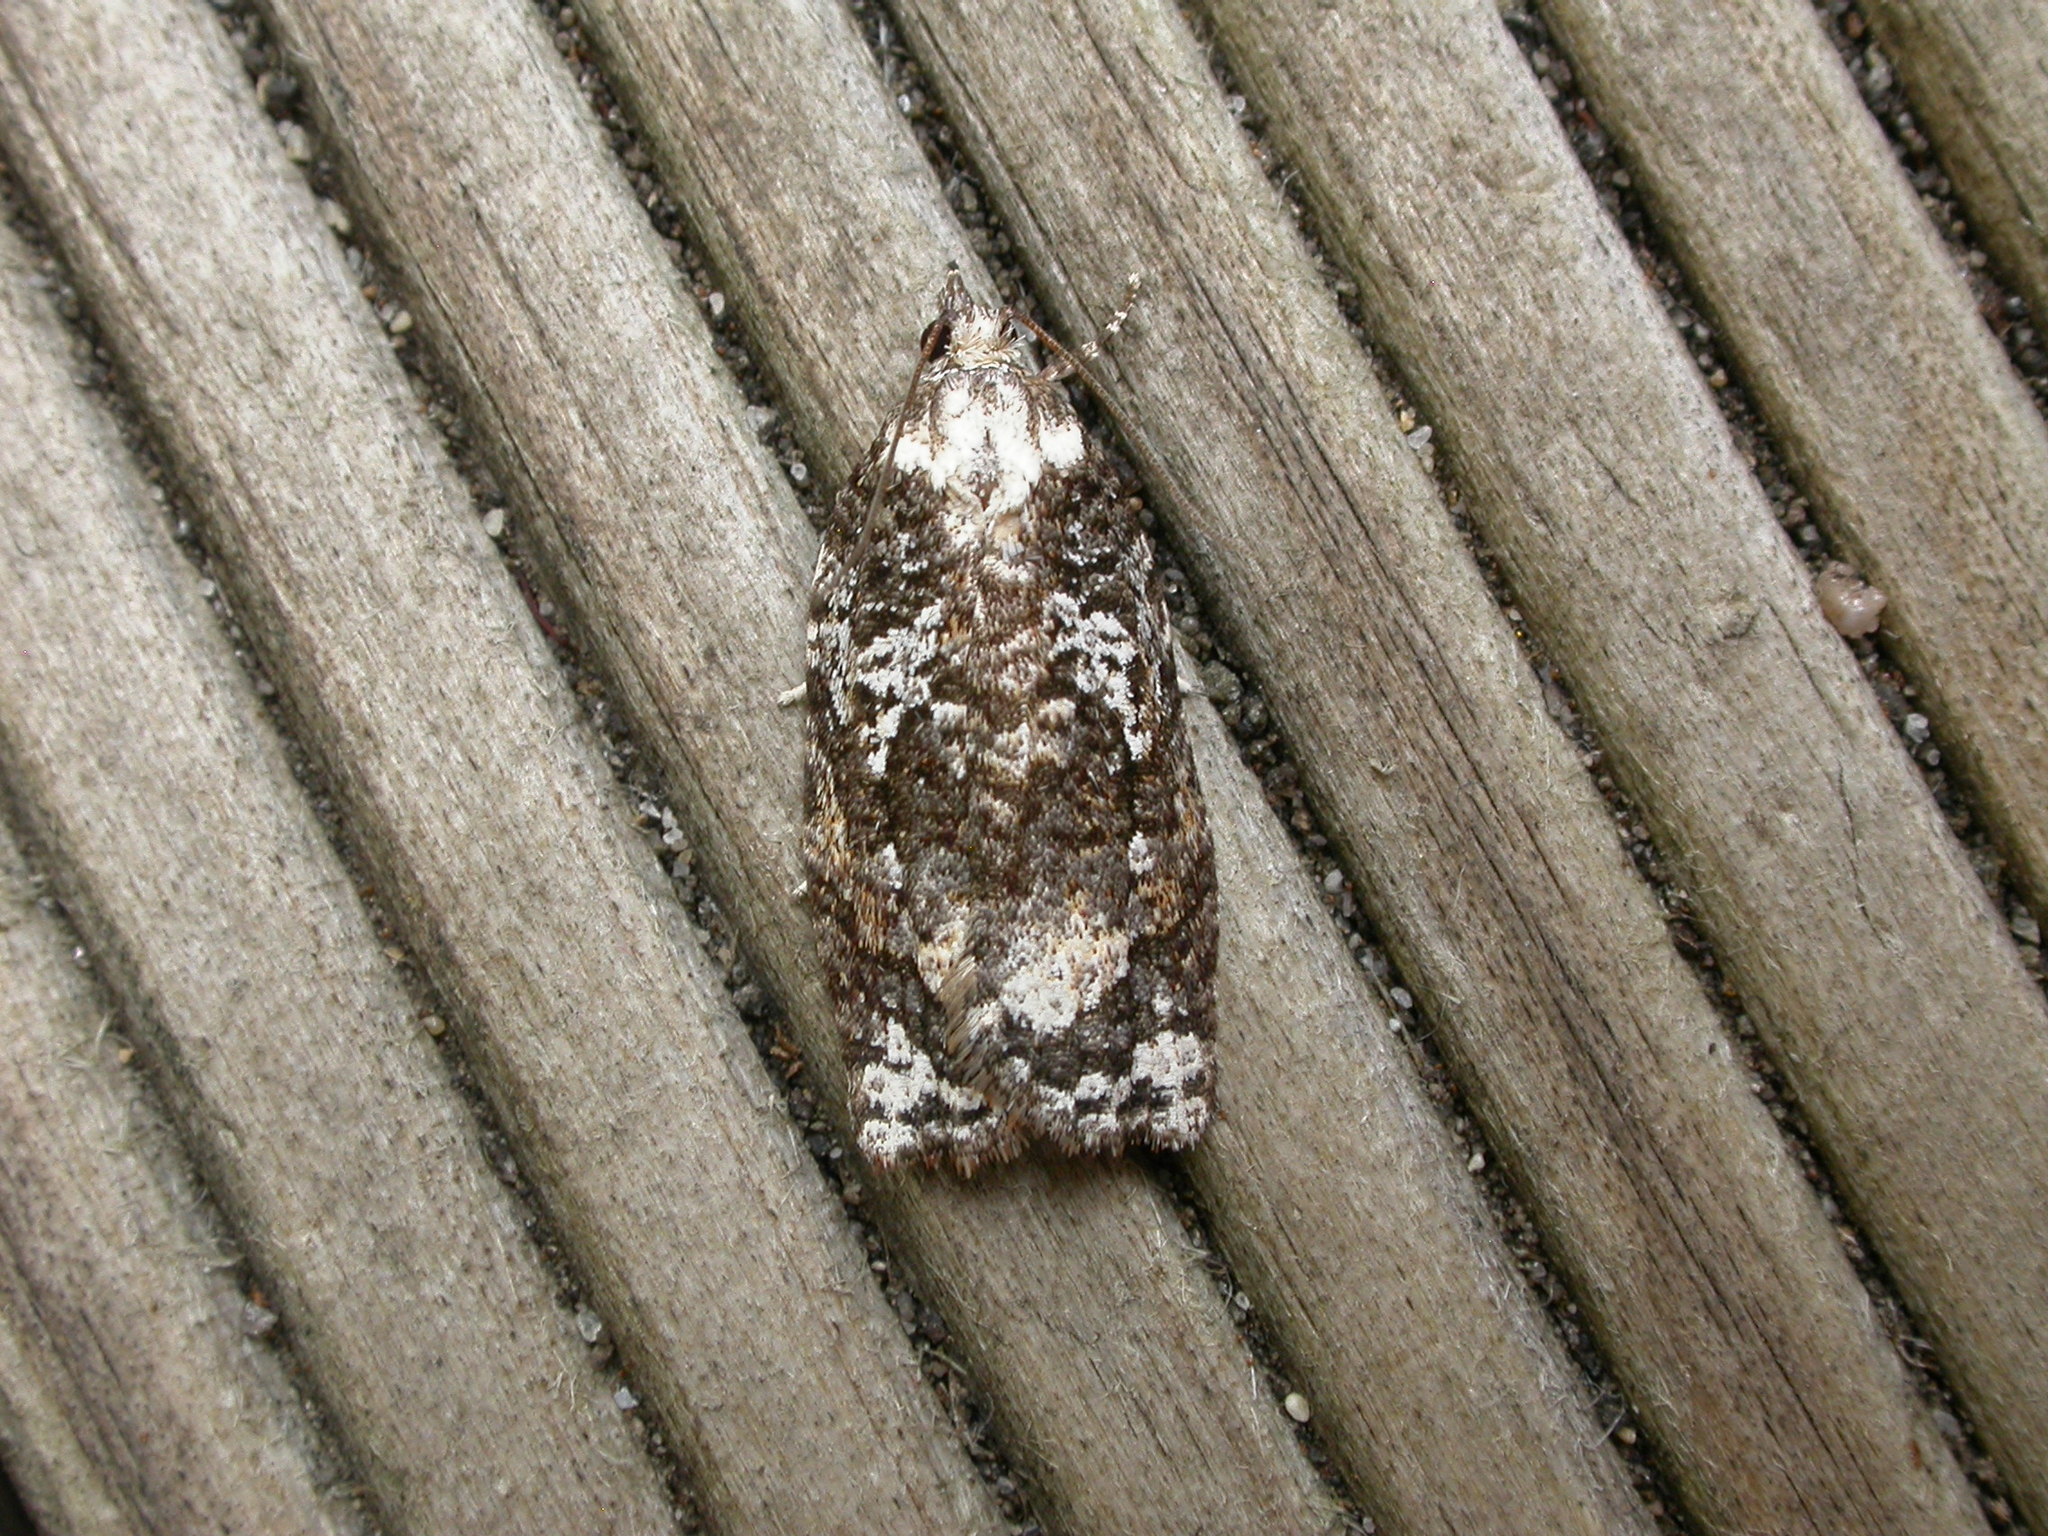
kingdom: Animalia
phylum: Arthropoda
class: Insecta
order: Lepidoptera
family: Tortricidae
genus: Acropolitis
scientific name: Acropolitis magnana
